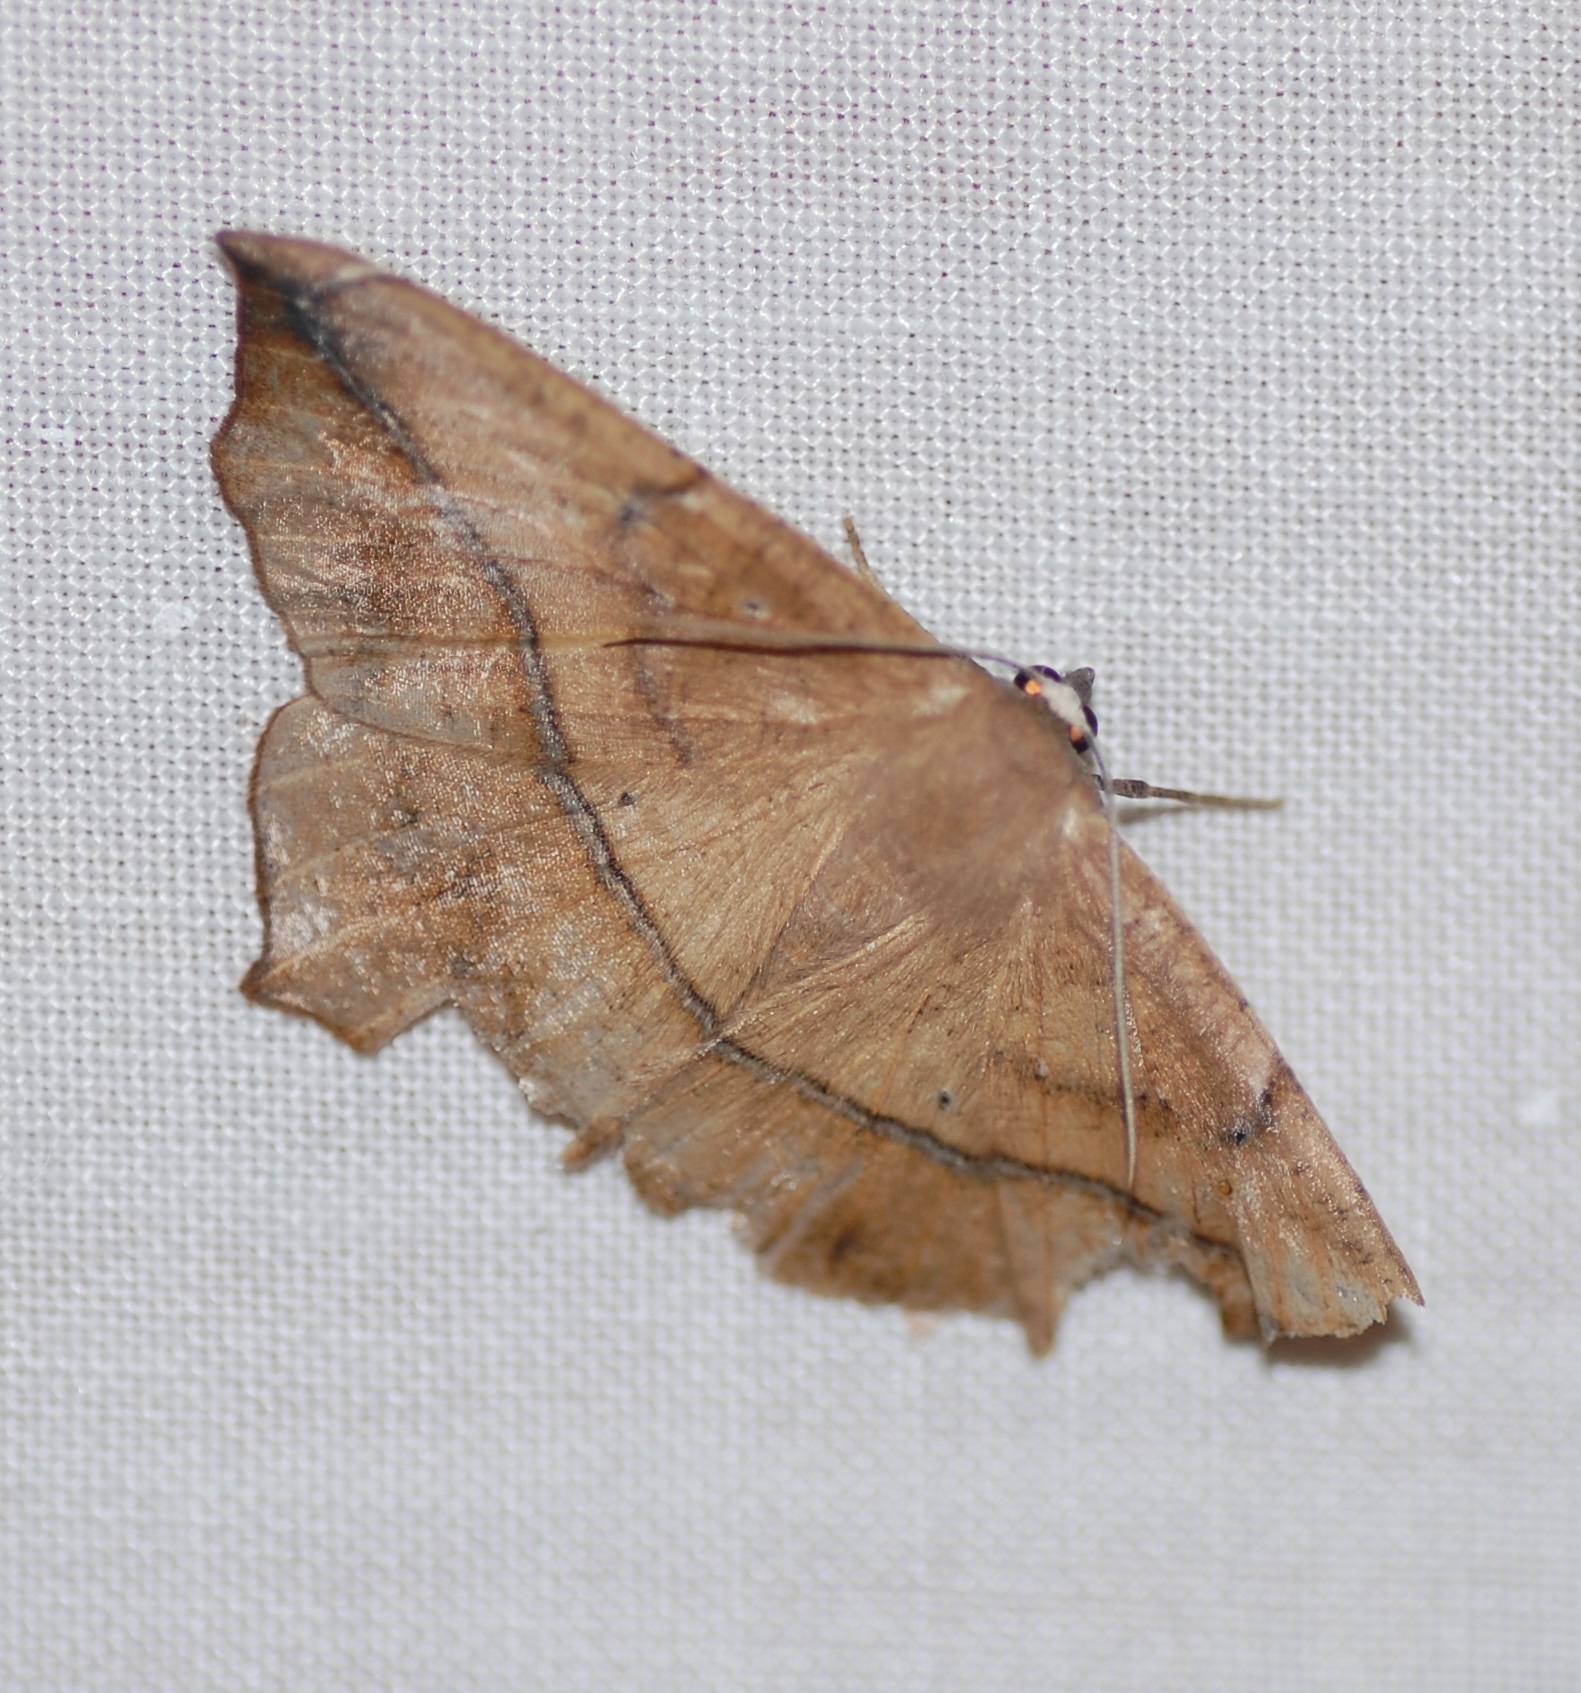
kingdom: Animalia
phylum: Arthropoda
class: Insecta
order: Lepidoptera
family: Geometridae
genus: Prochoerodes
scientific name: Prochoerodes lineola
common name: Large maple spanworm
